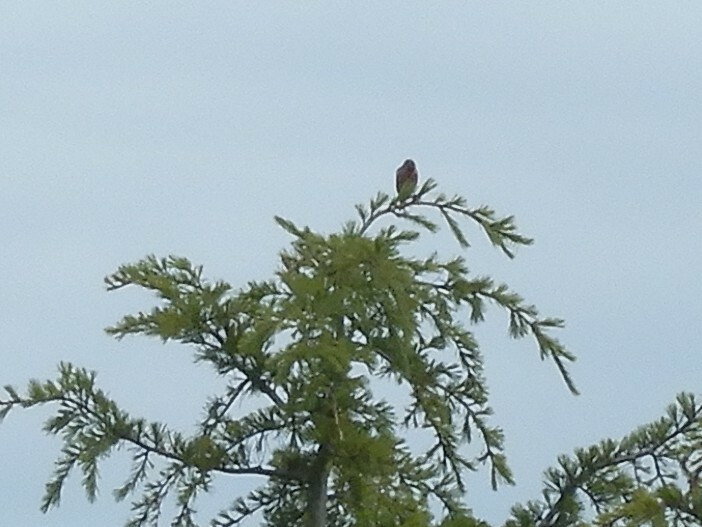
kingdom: Animalia
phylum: Chordata
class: Aves
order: Passeriformes
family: Fringillidae
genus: Acanthis
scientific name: Acanthis flammea
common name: Common redpoll
